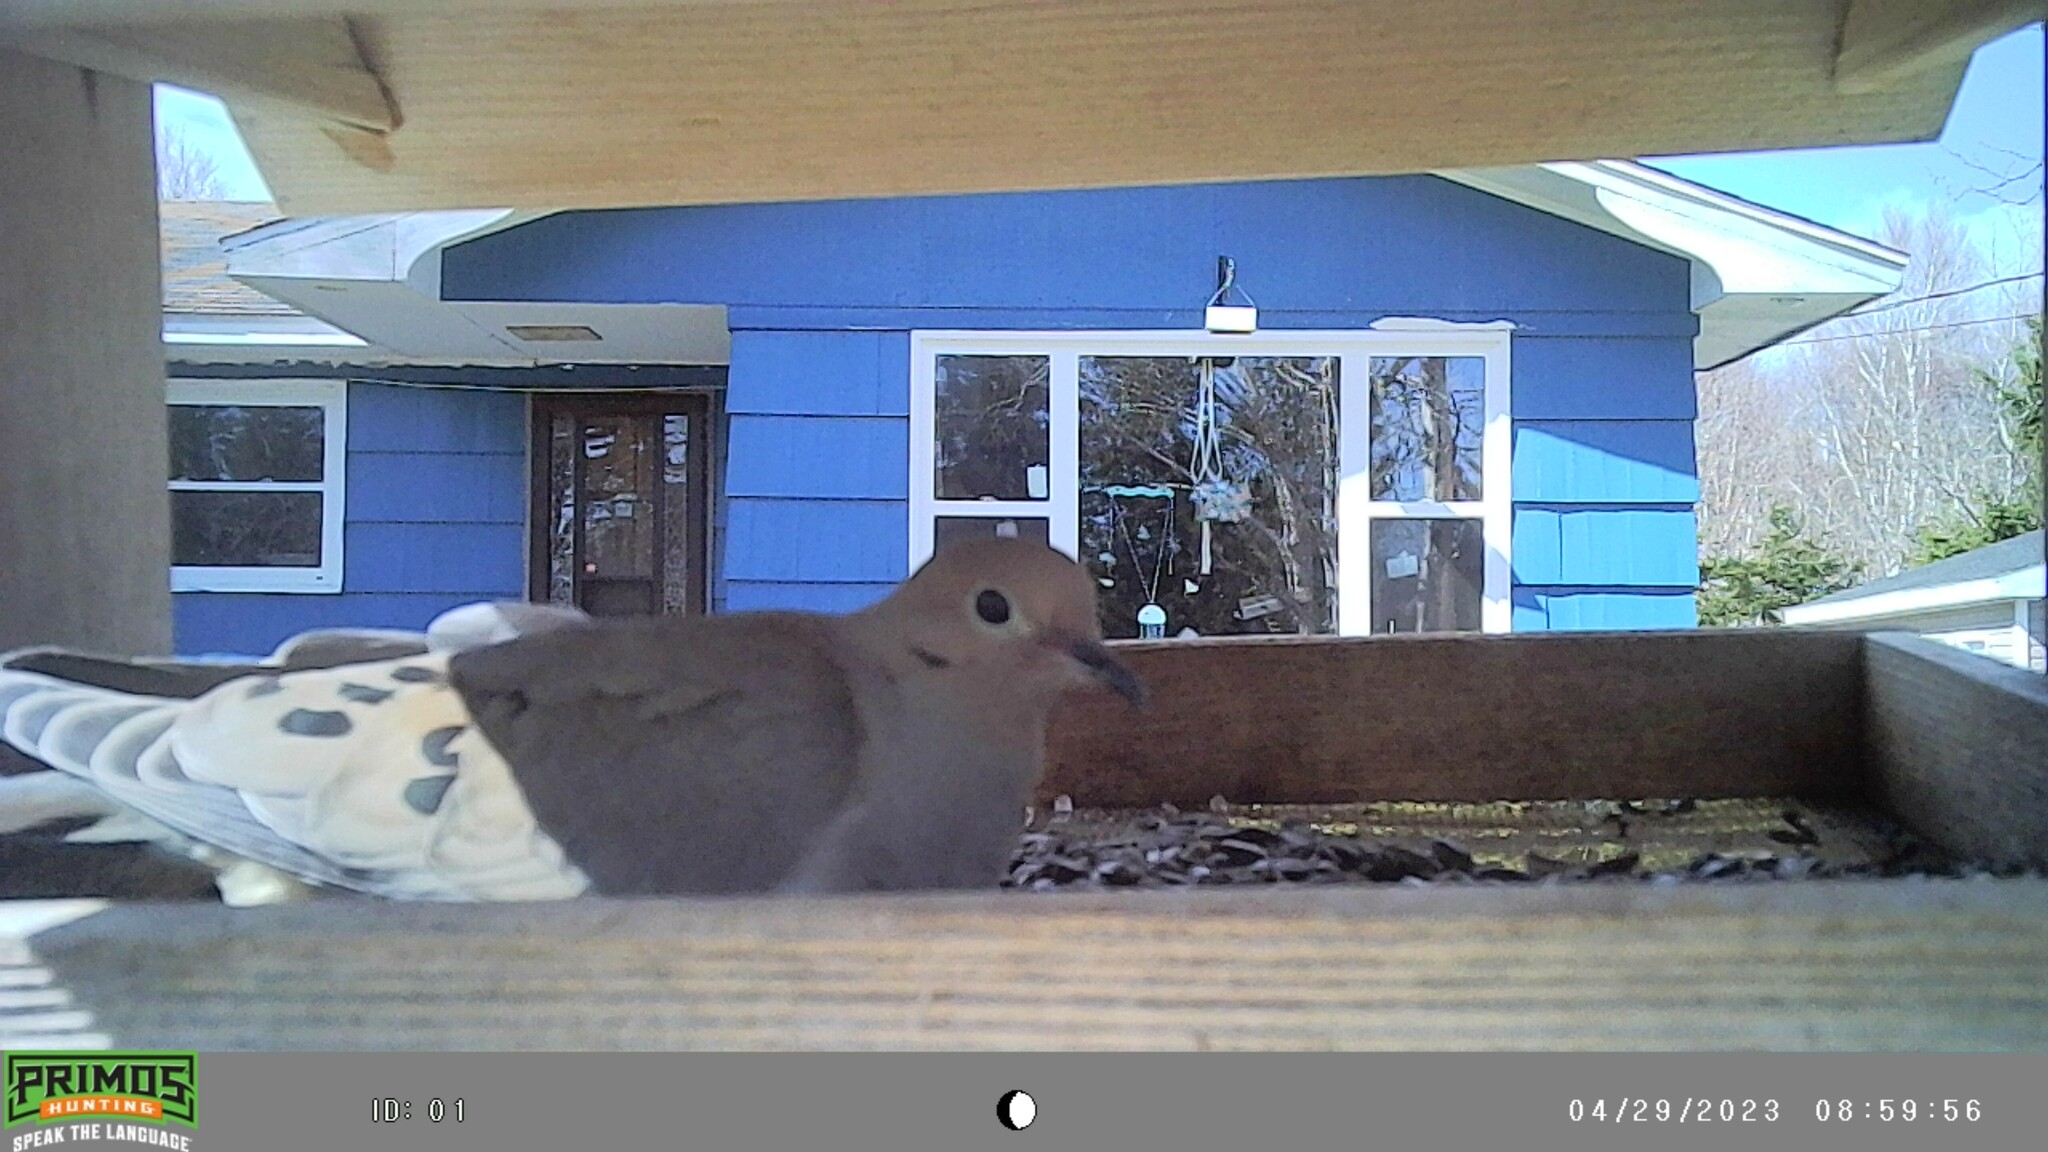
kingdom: Animalia
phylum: Chordata
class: Aves
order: Columbiformes
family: Columbidae
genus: Zenaida
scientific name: Zenaida macroura
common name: Mourning dove
